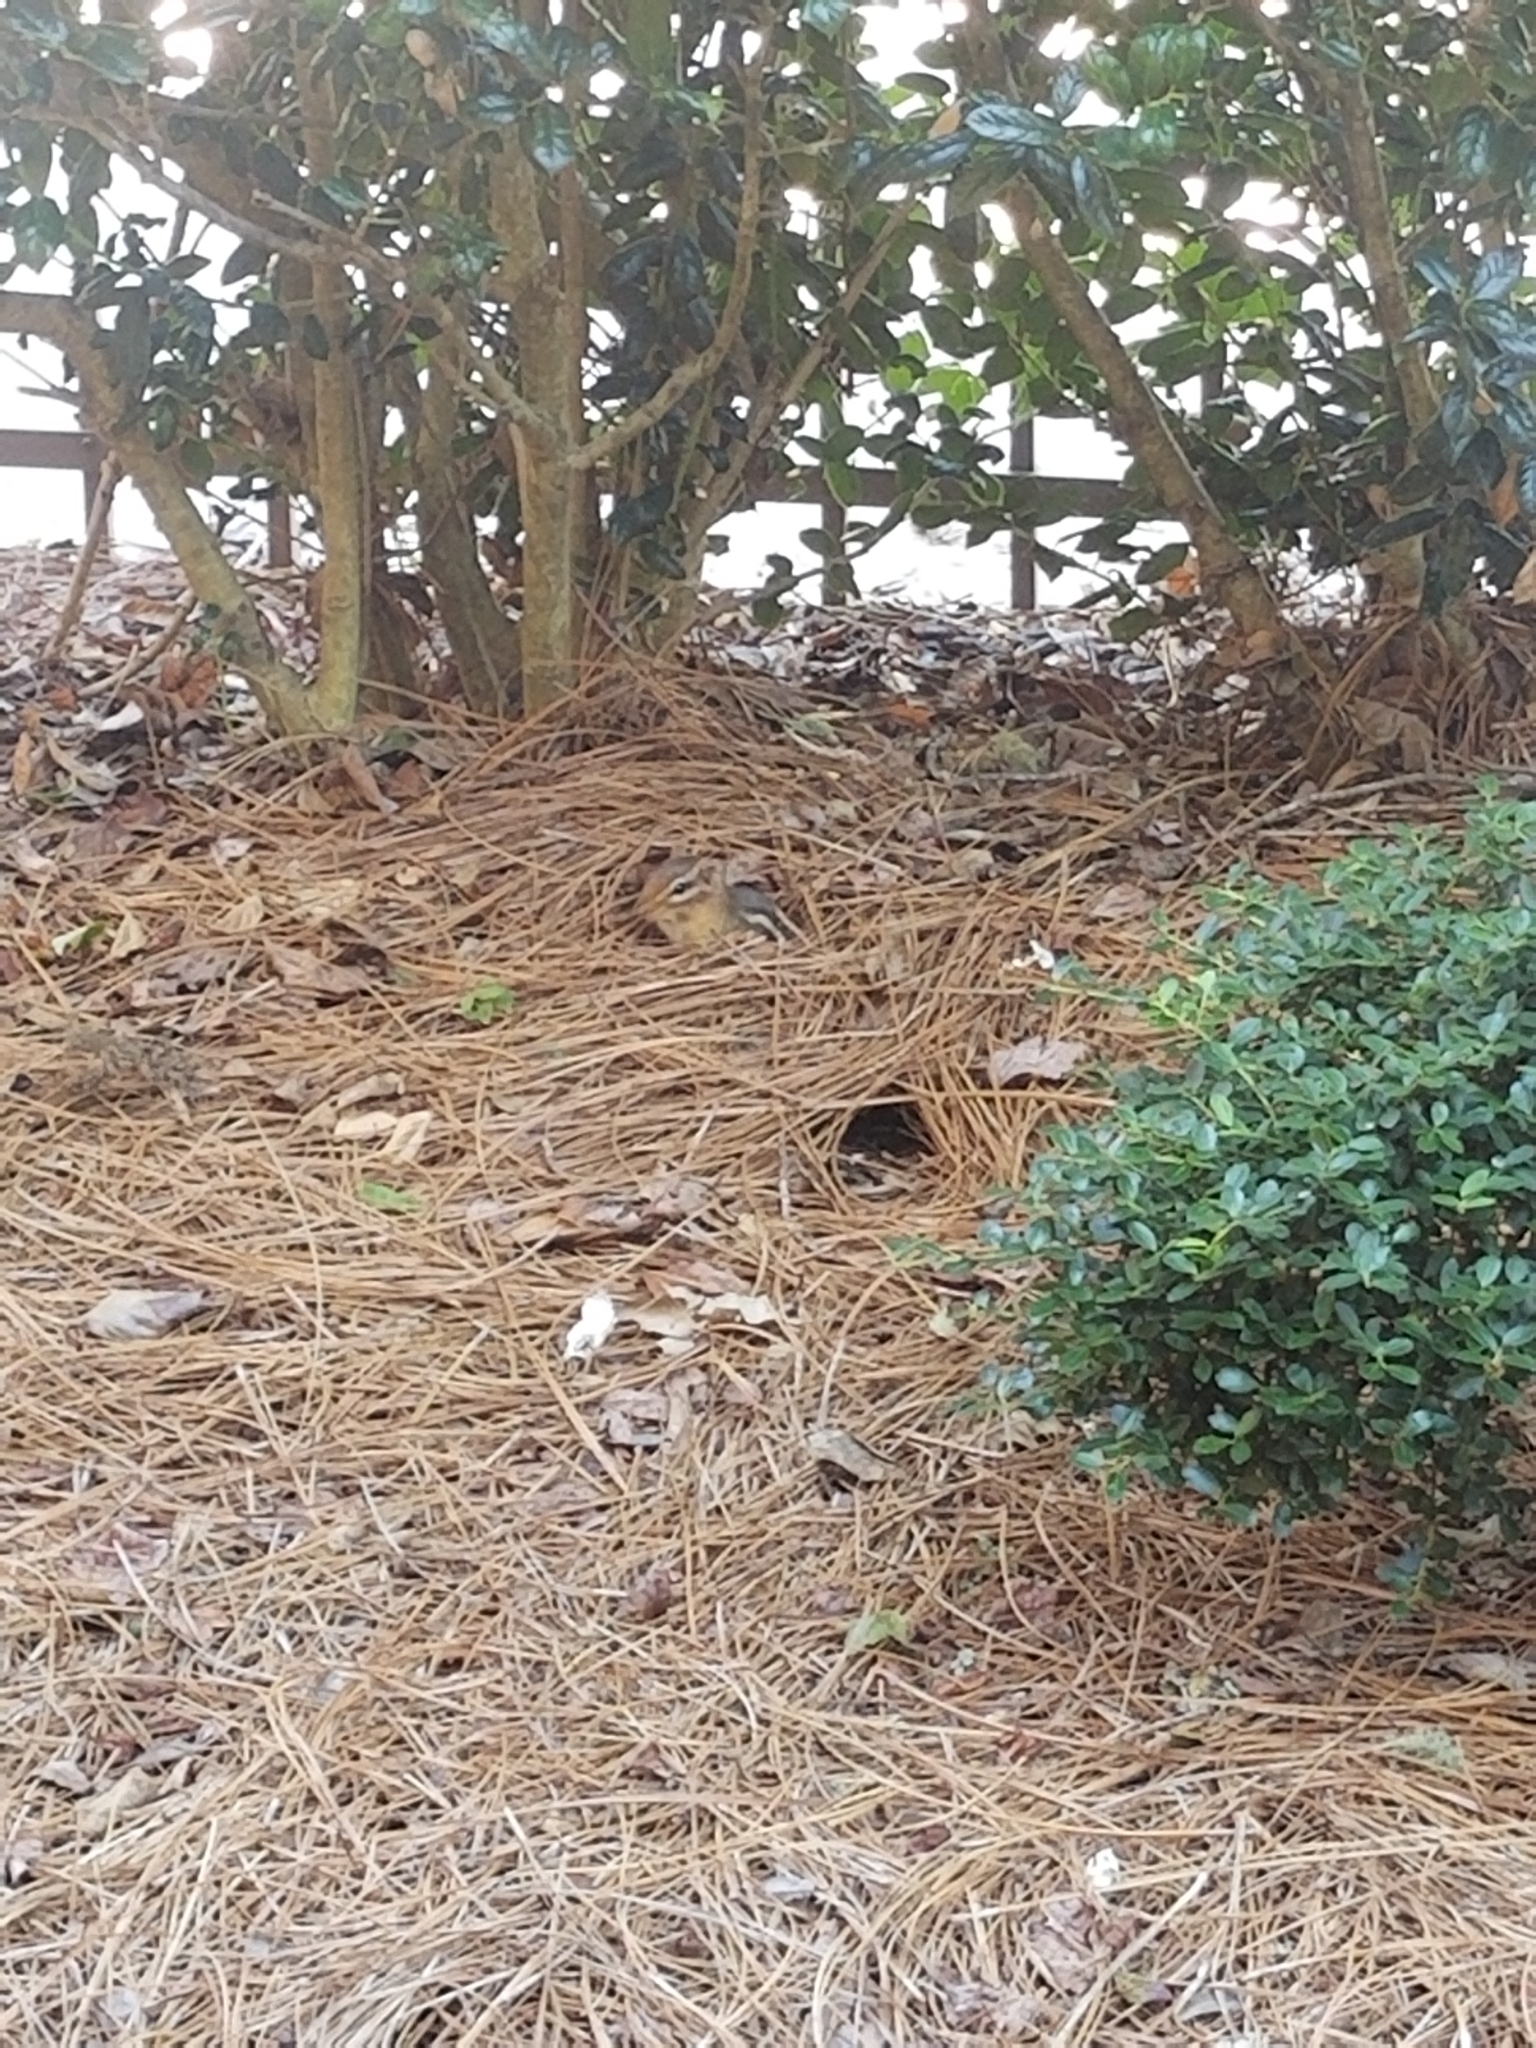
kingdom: Animalia
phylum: Chordata
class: Mammalia
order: Rodentia
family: Sciuridae
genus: Tamias
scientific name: Tamias striatus
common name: Eastern chipmunk
